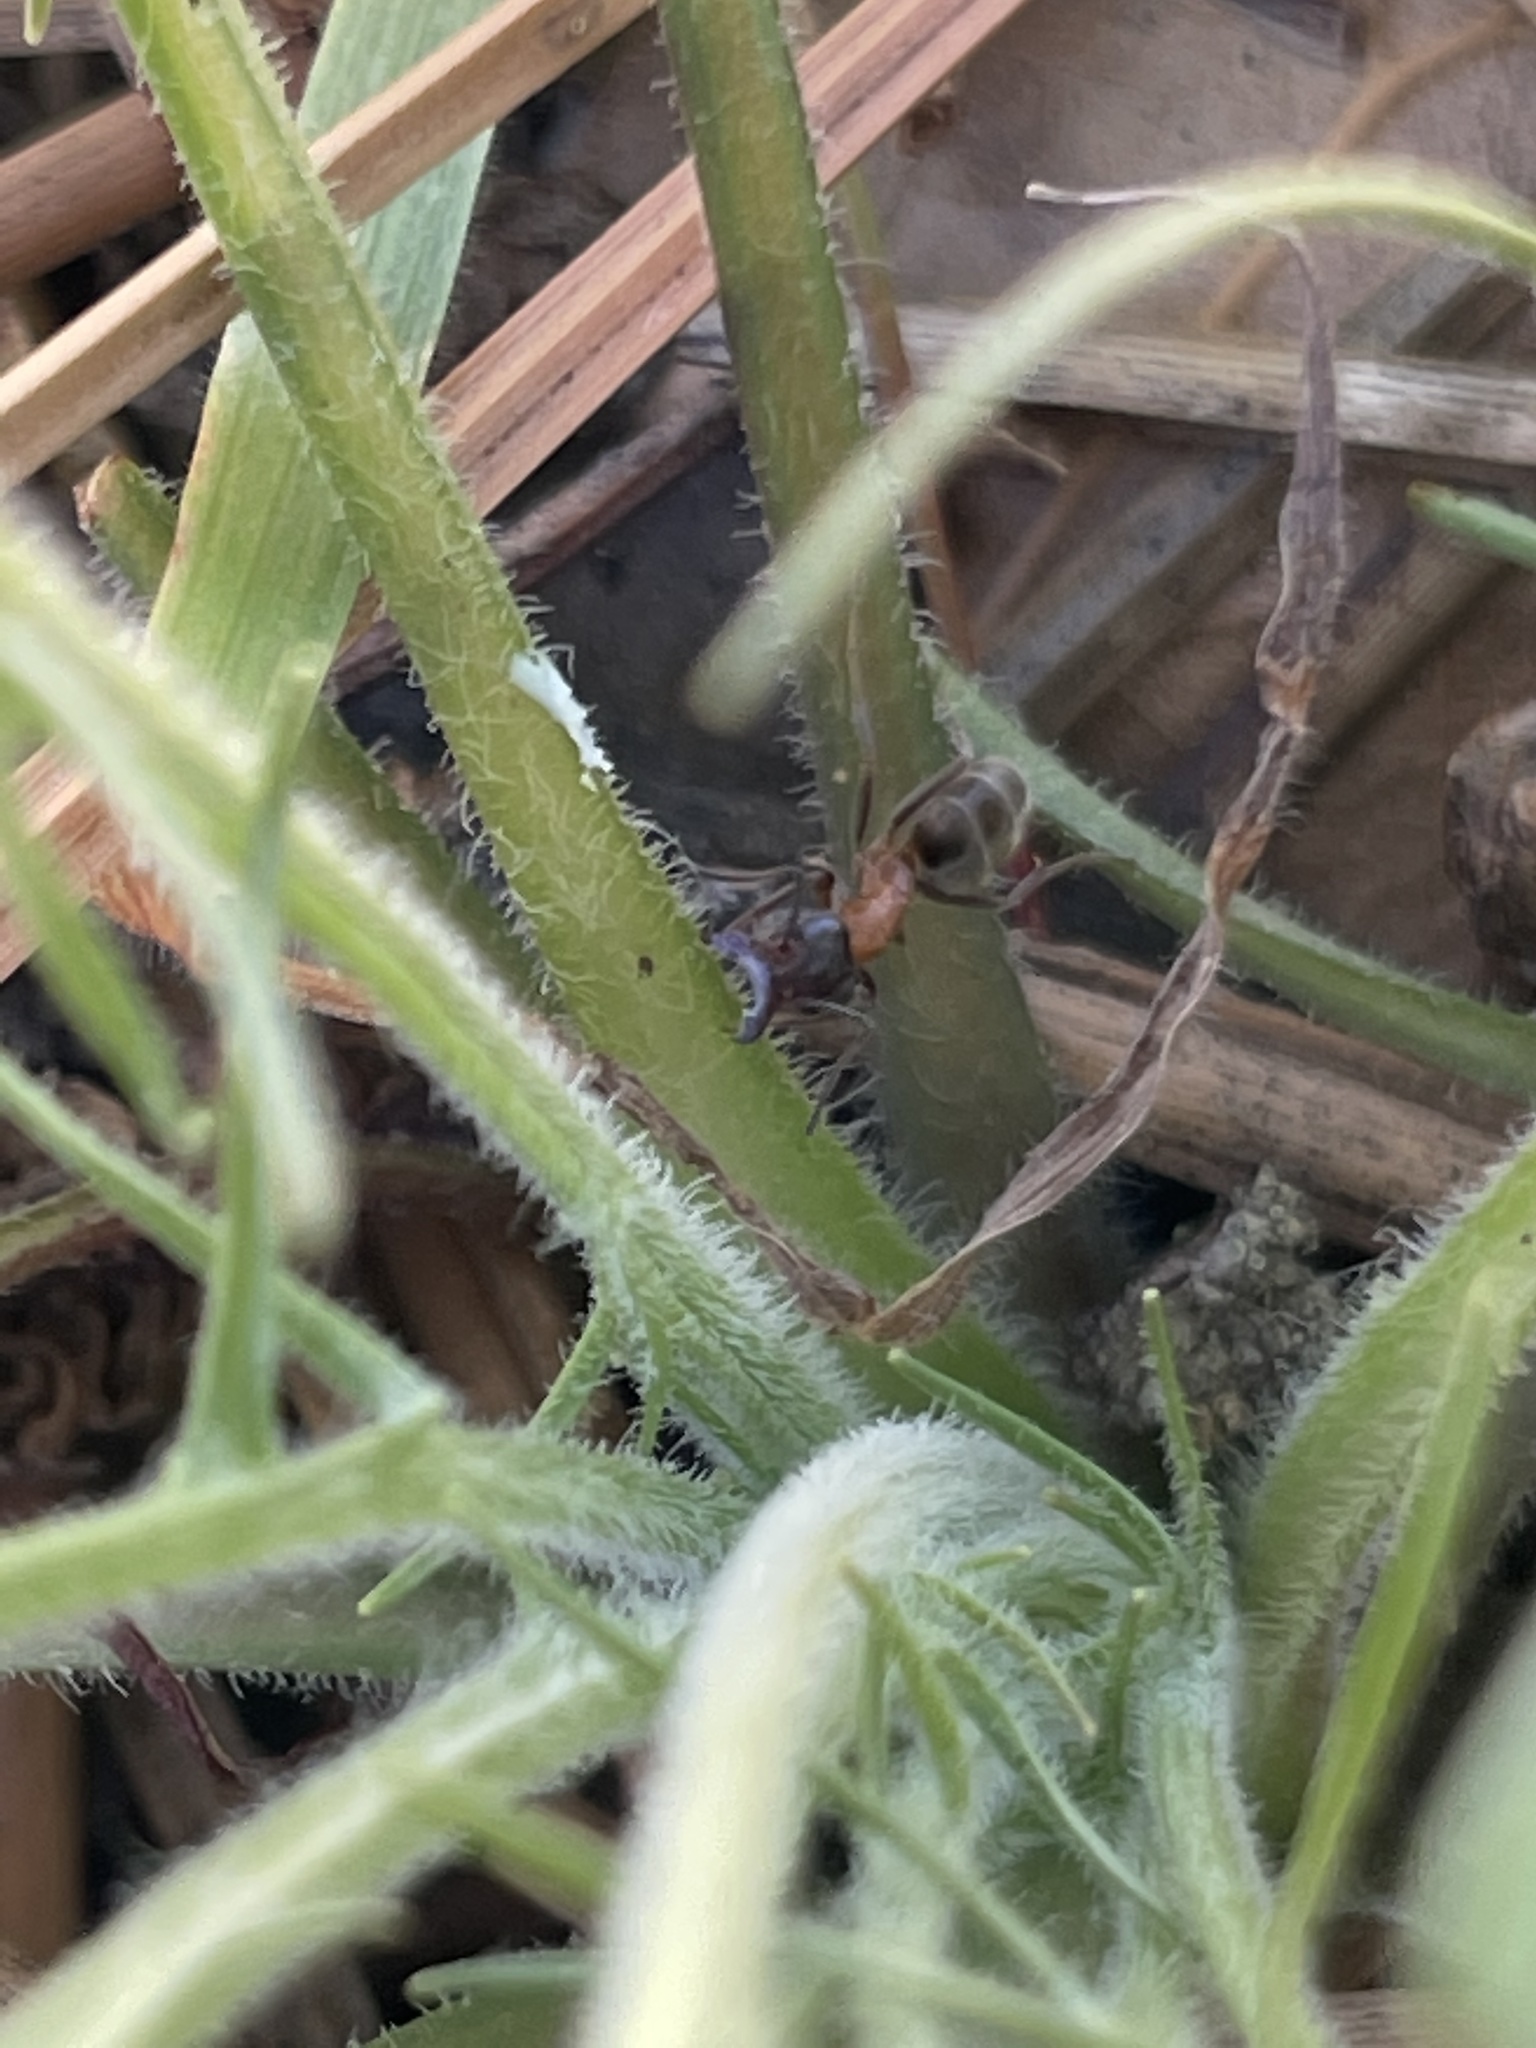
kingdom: Animalia
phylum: Arthropoda
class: Insecta
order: Hymenoptera
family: Formicidae
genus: Liometopum
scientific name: Liometopum occidentale
